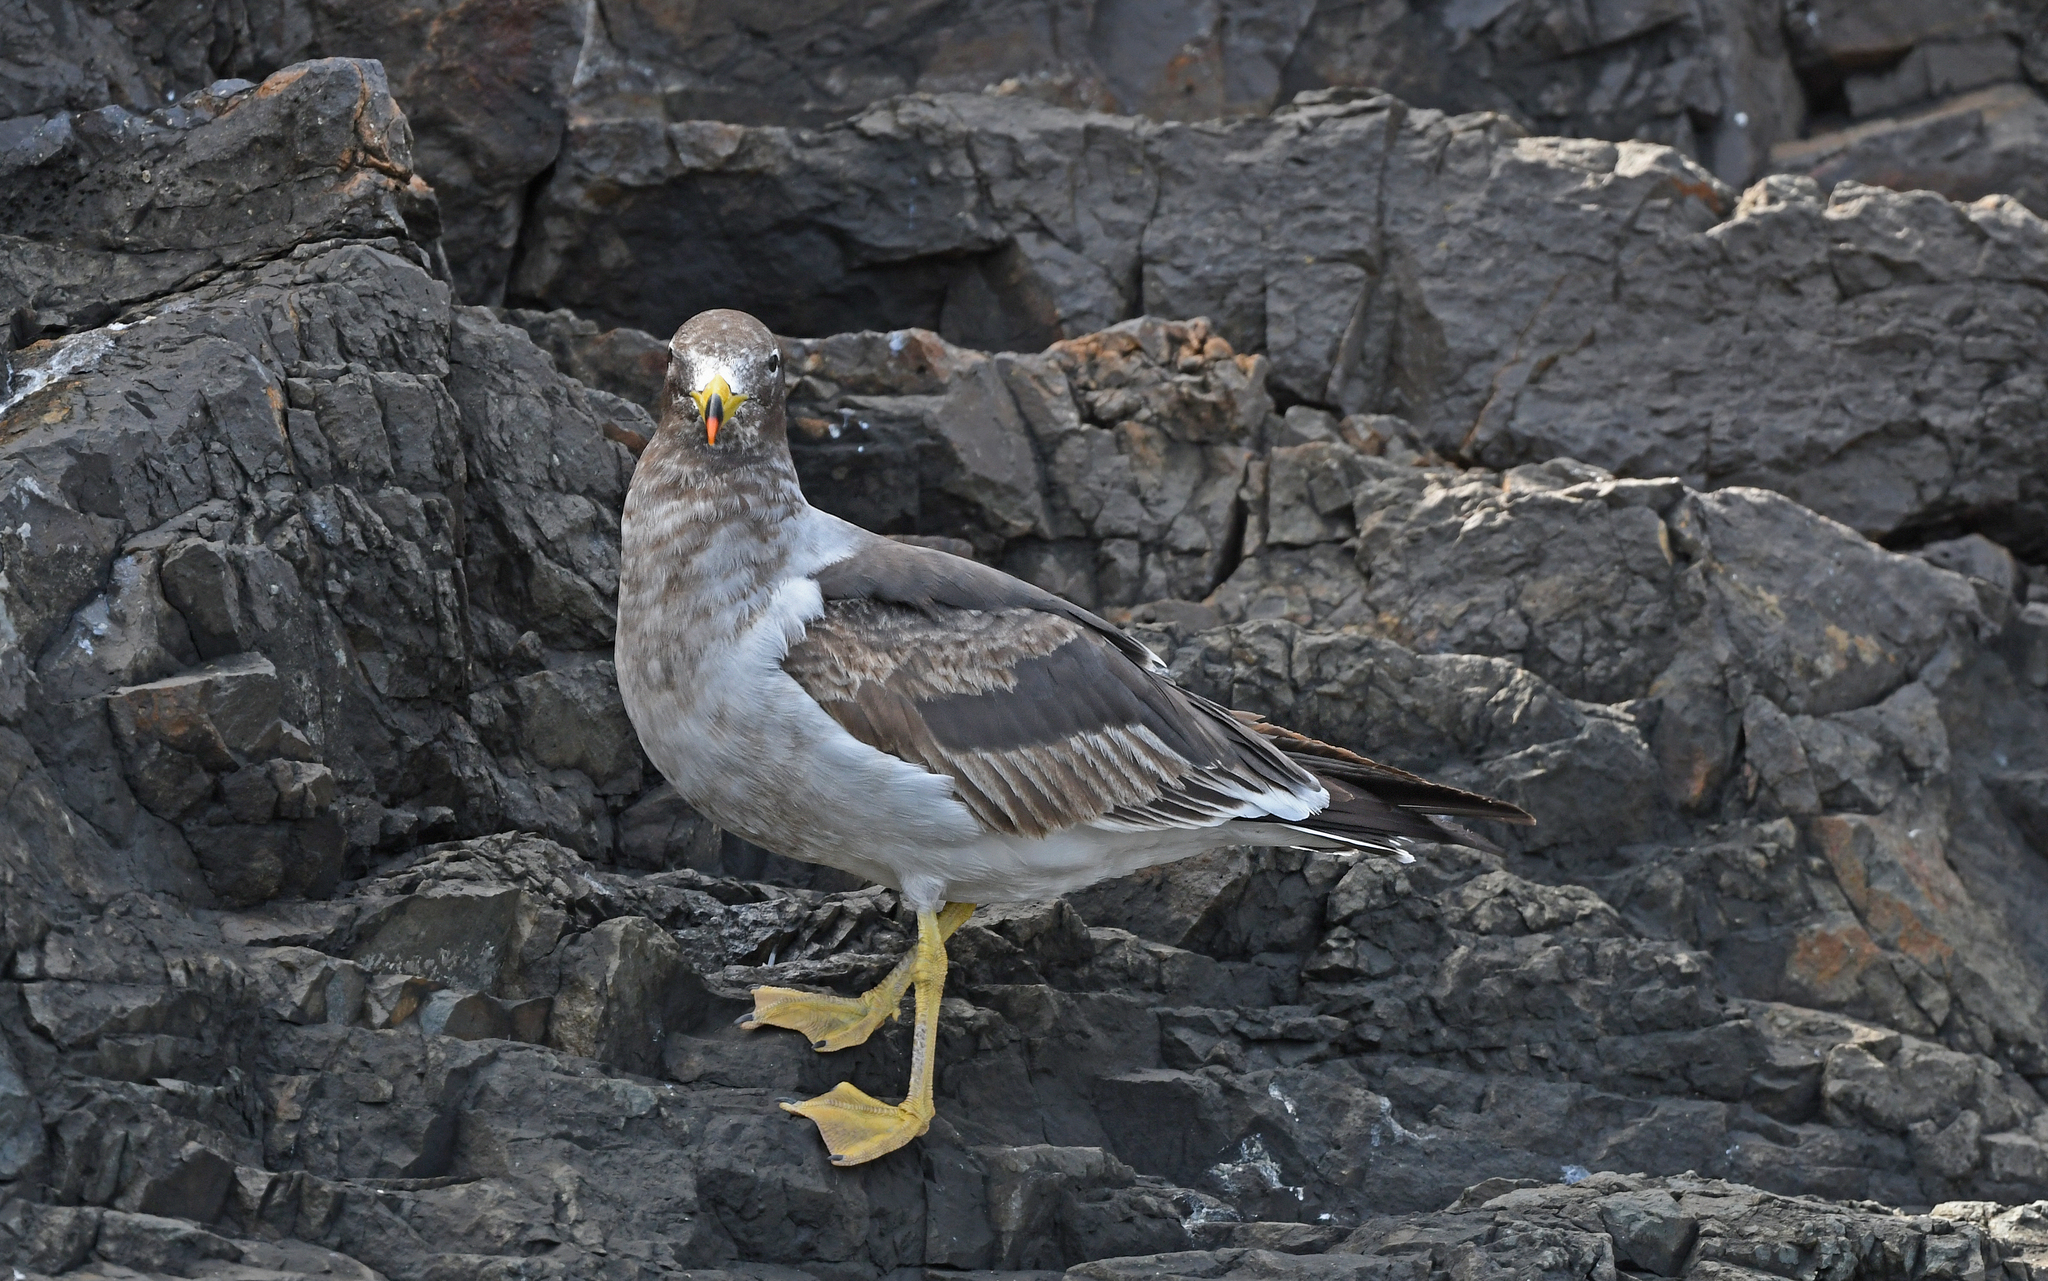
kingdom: Animalia
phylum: Chordata
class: Aves
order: Charadriiformes
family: Laridae
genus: Larus
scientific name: Larus belcheri
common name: Belcher's gull
